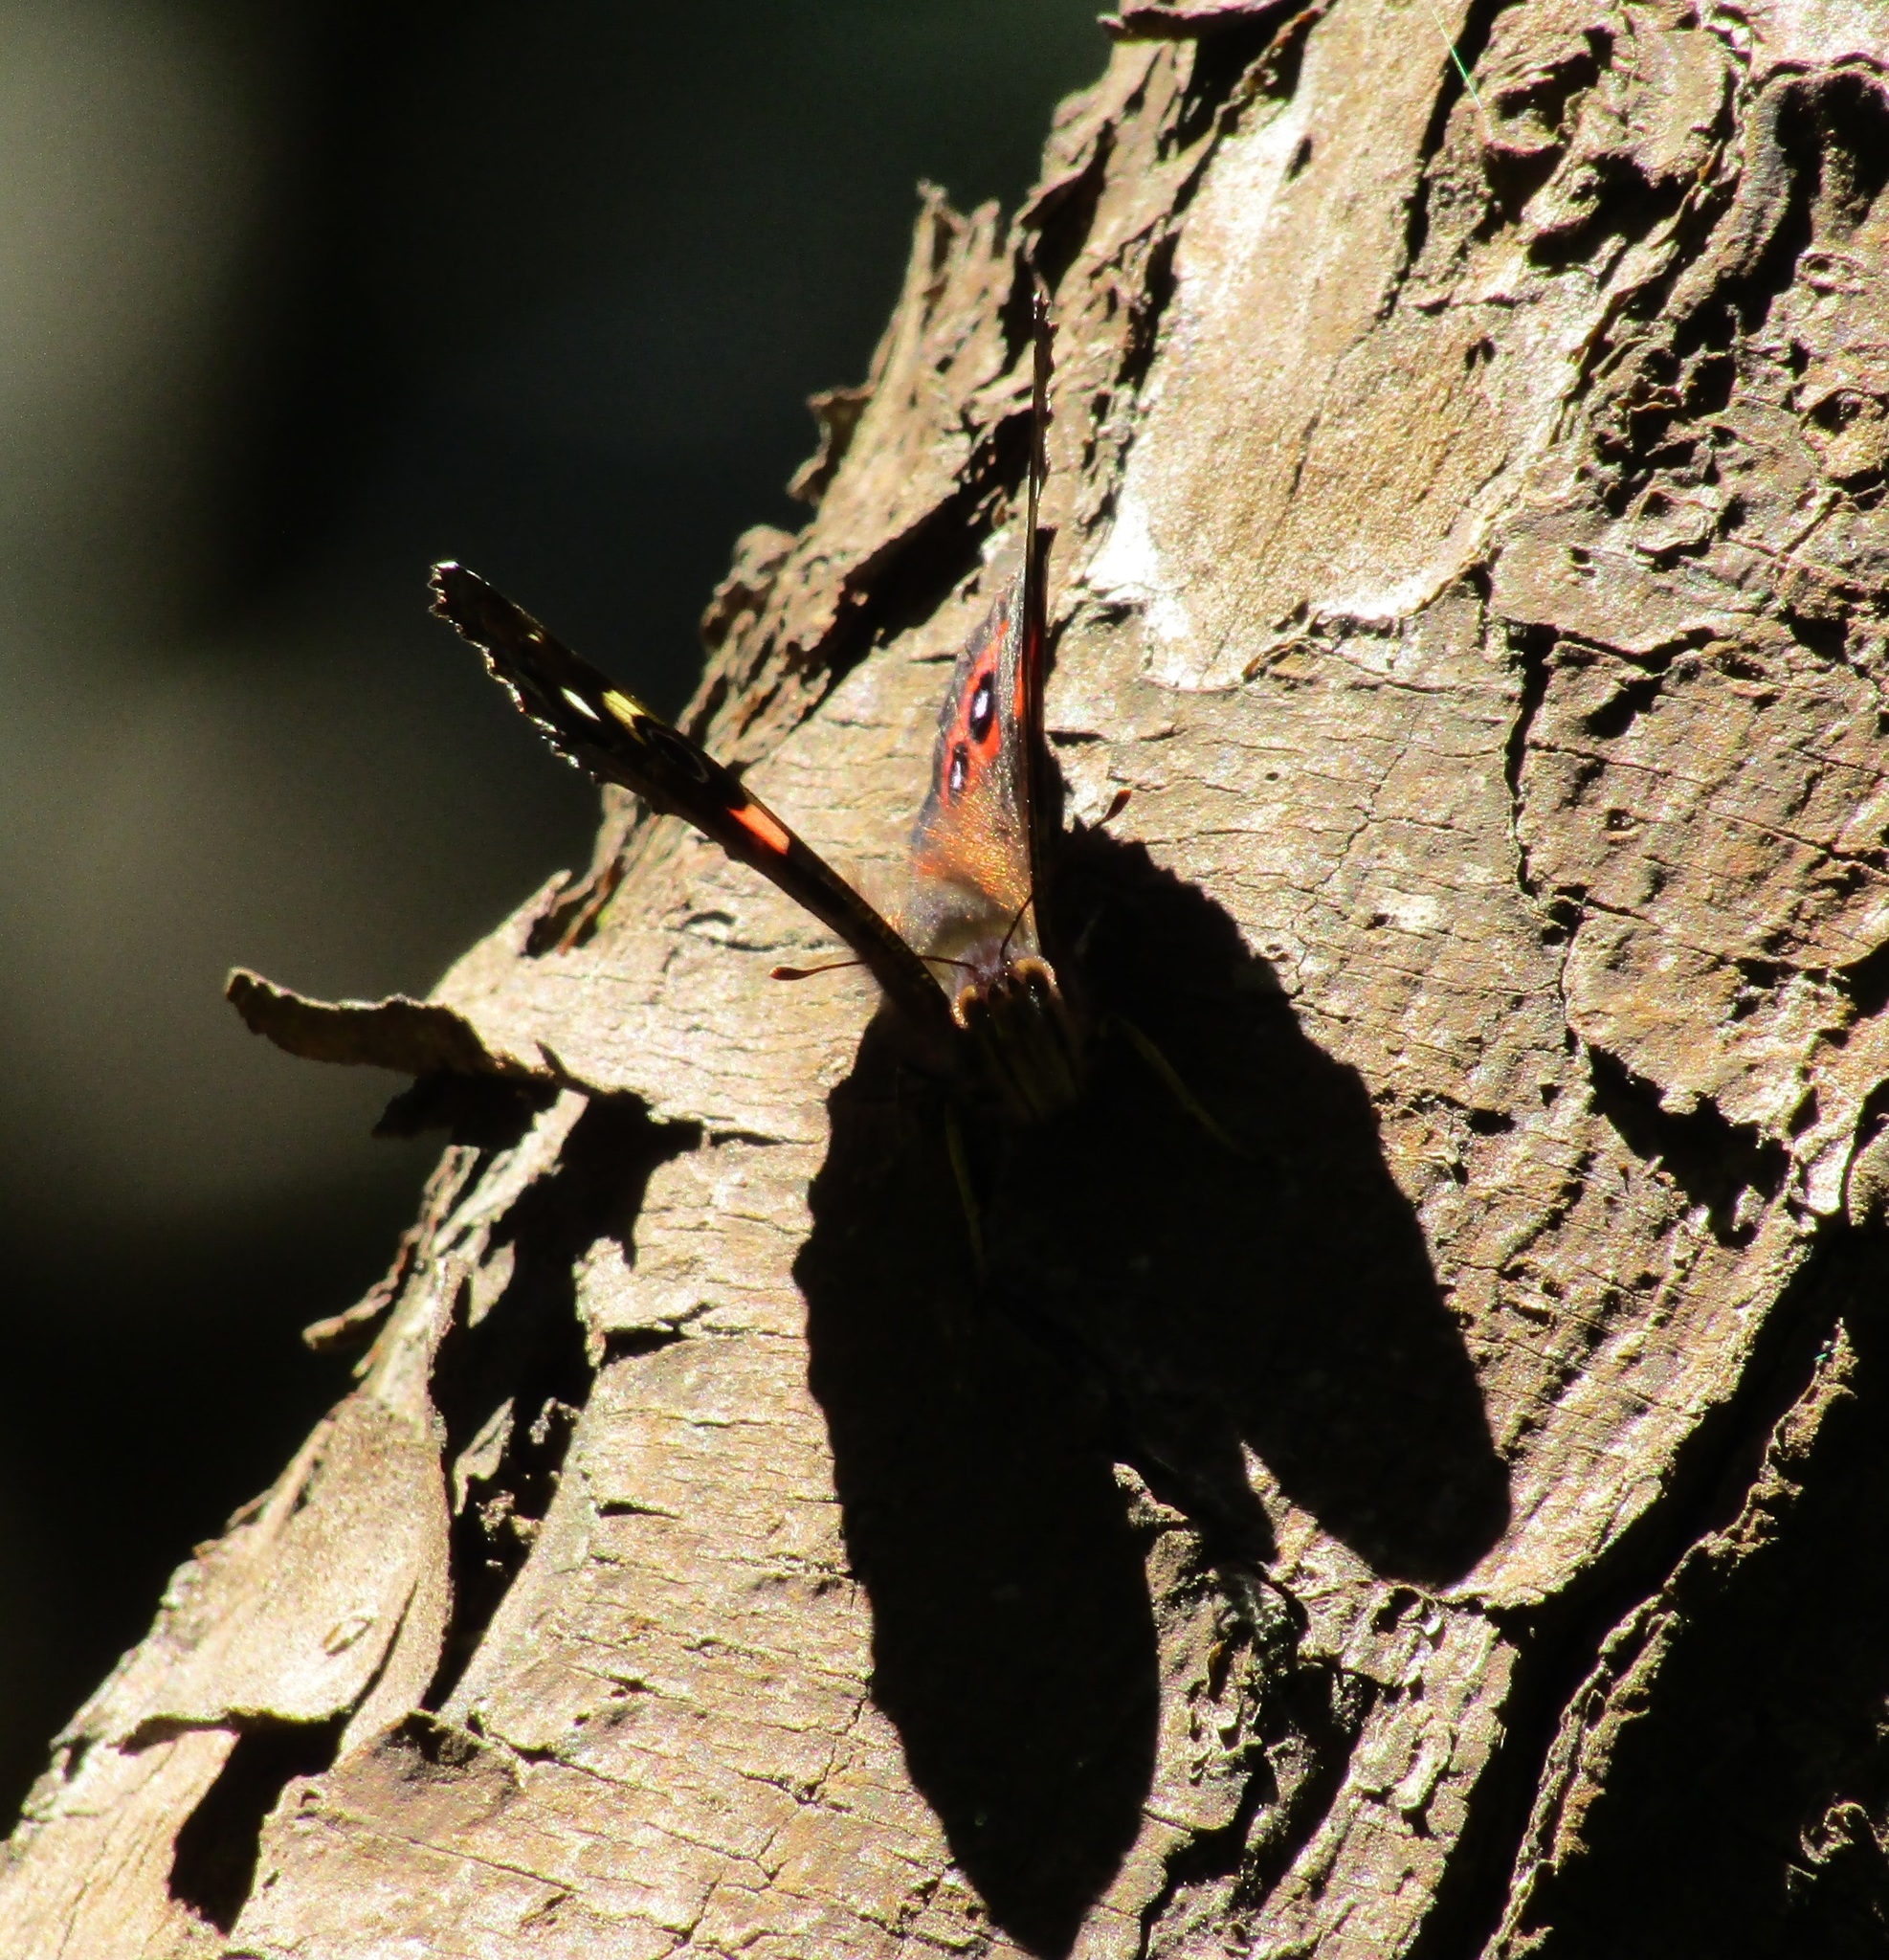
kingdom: Animalia
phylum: Arthropoda
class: Insecta
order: Lepidoptera
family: Nymphalidae
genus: Vanessa
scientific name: Vanessa gonerilla
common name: New zealand red admiral
